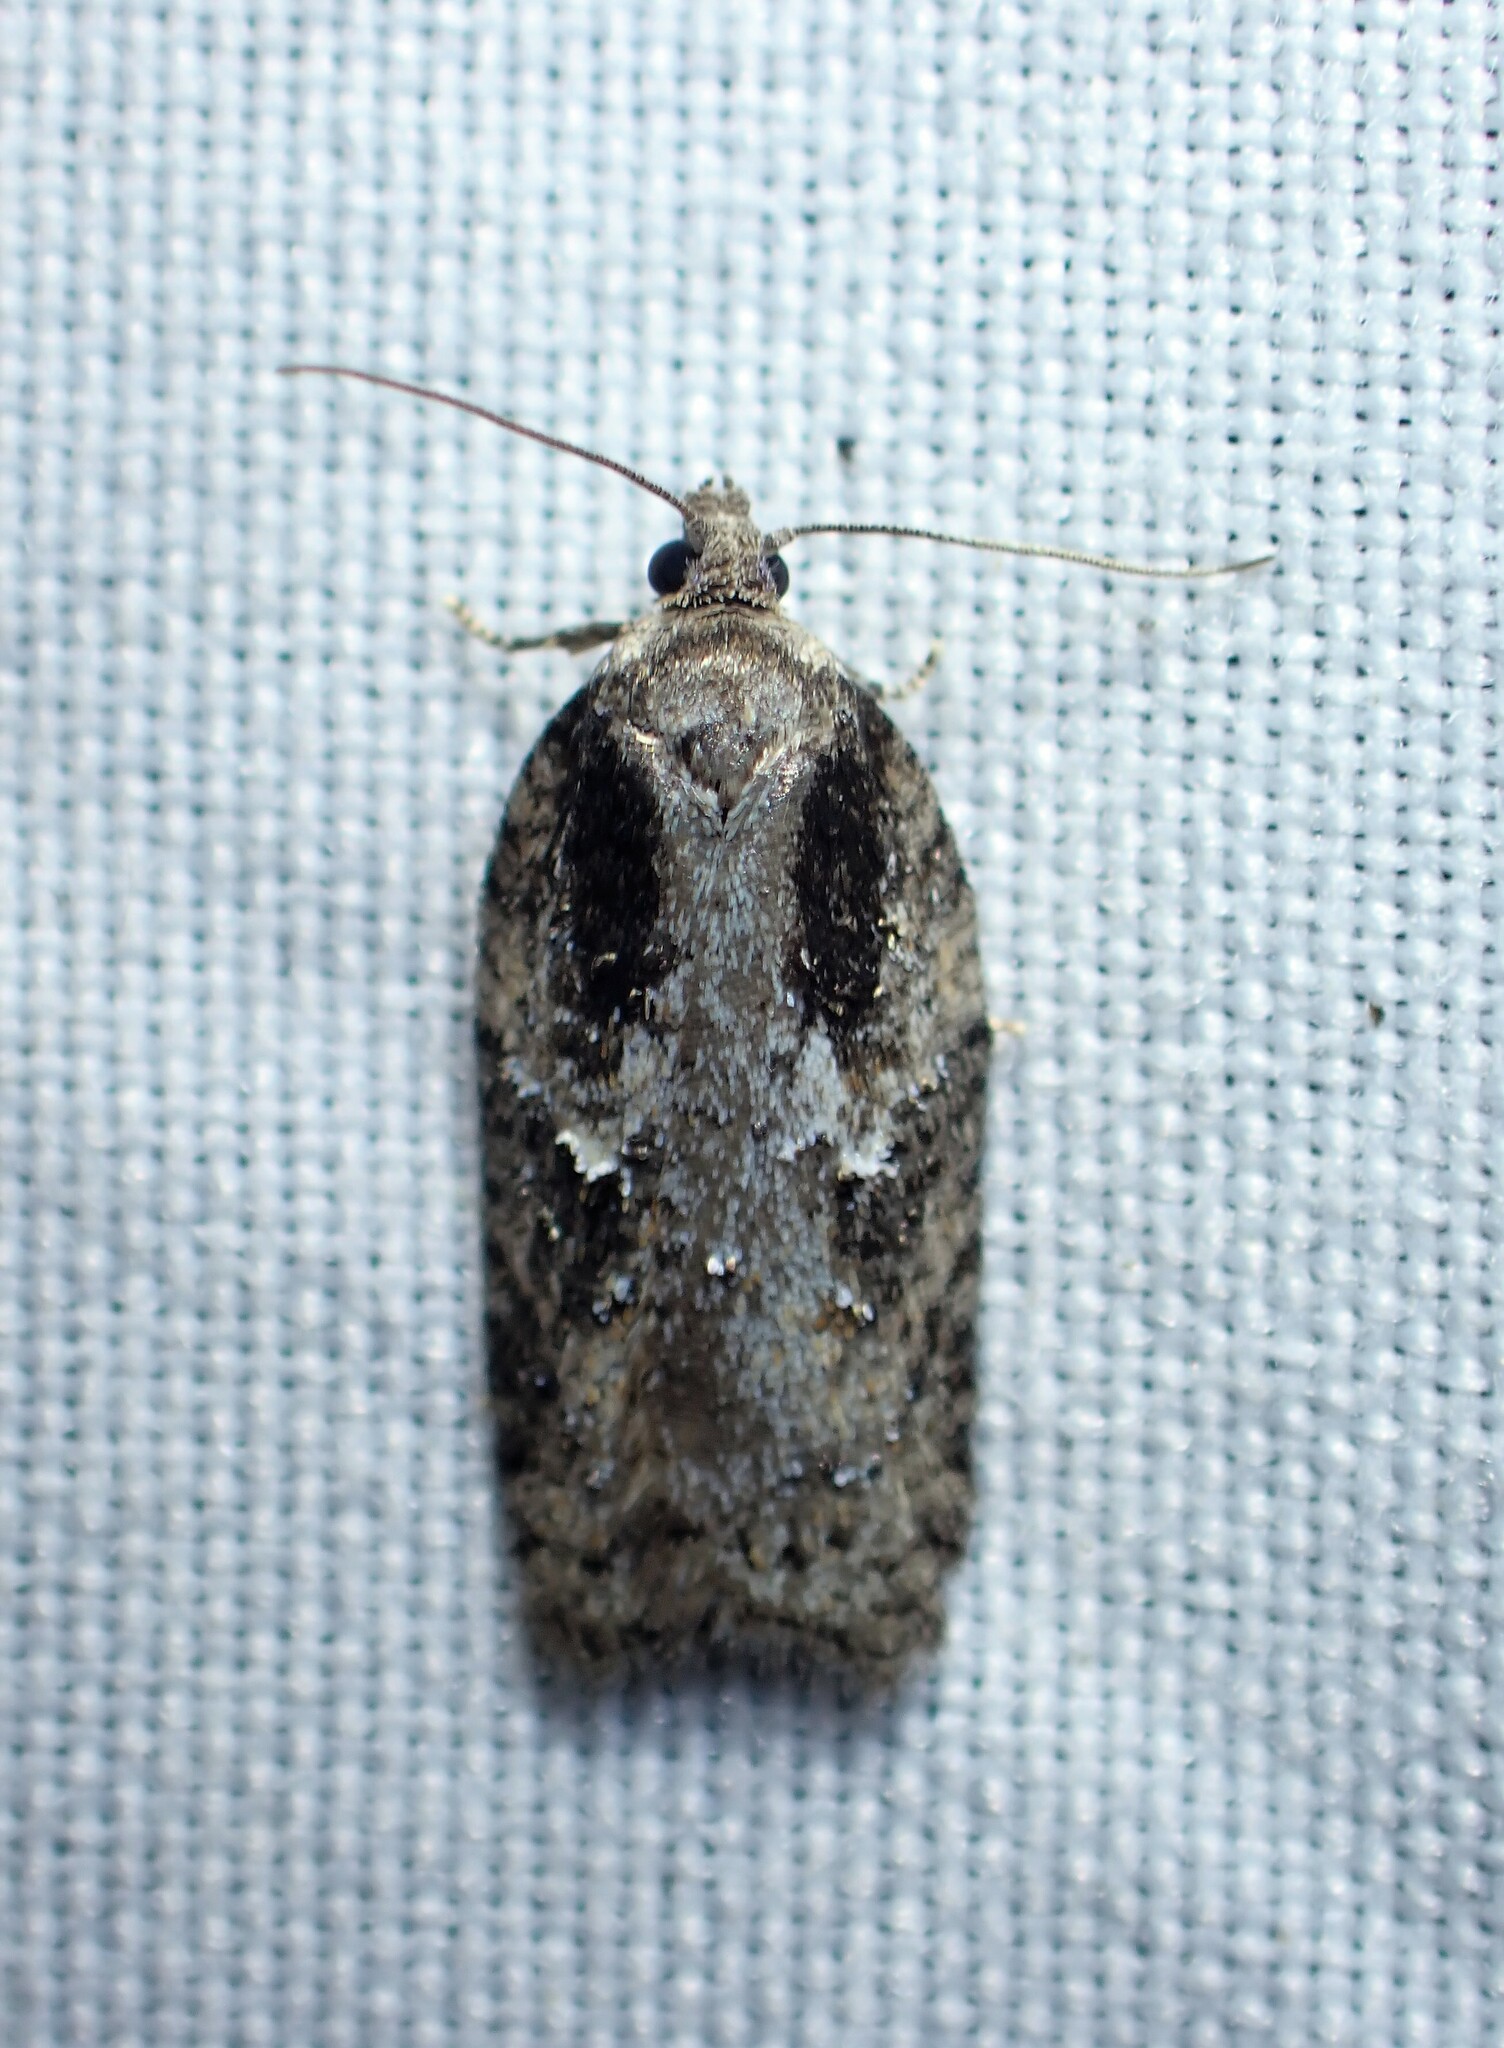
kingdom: Animalia
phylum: Arthropoda
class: Insecta
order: Lepidoptera
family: Tortricidae
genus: Acleris
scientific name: Acleris
